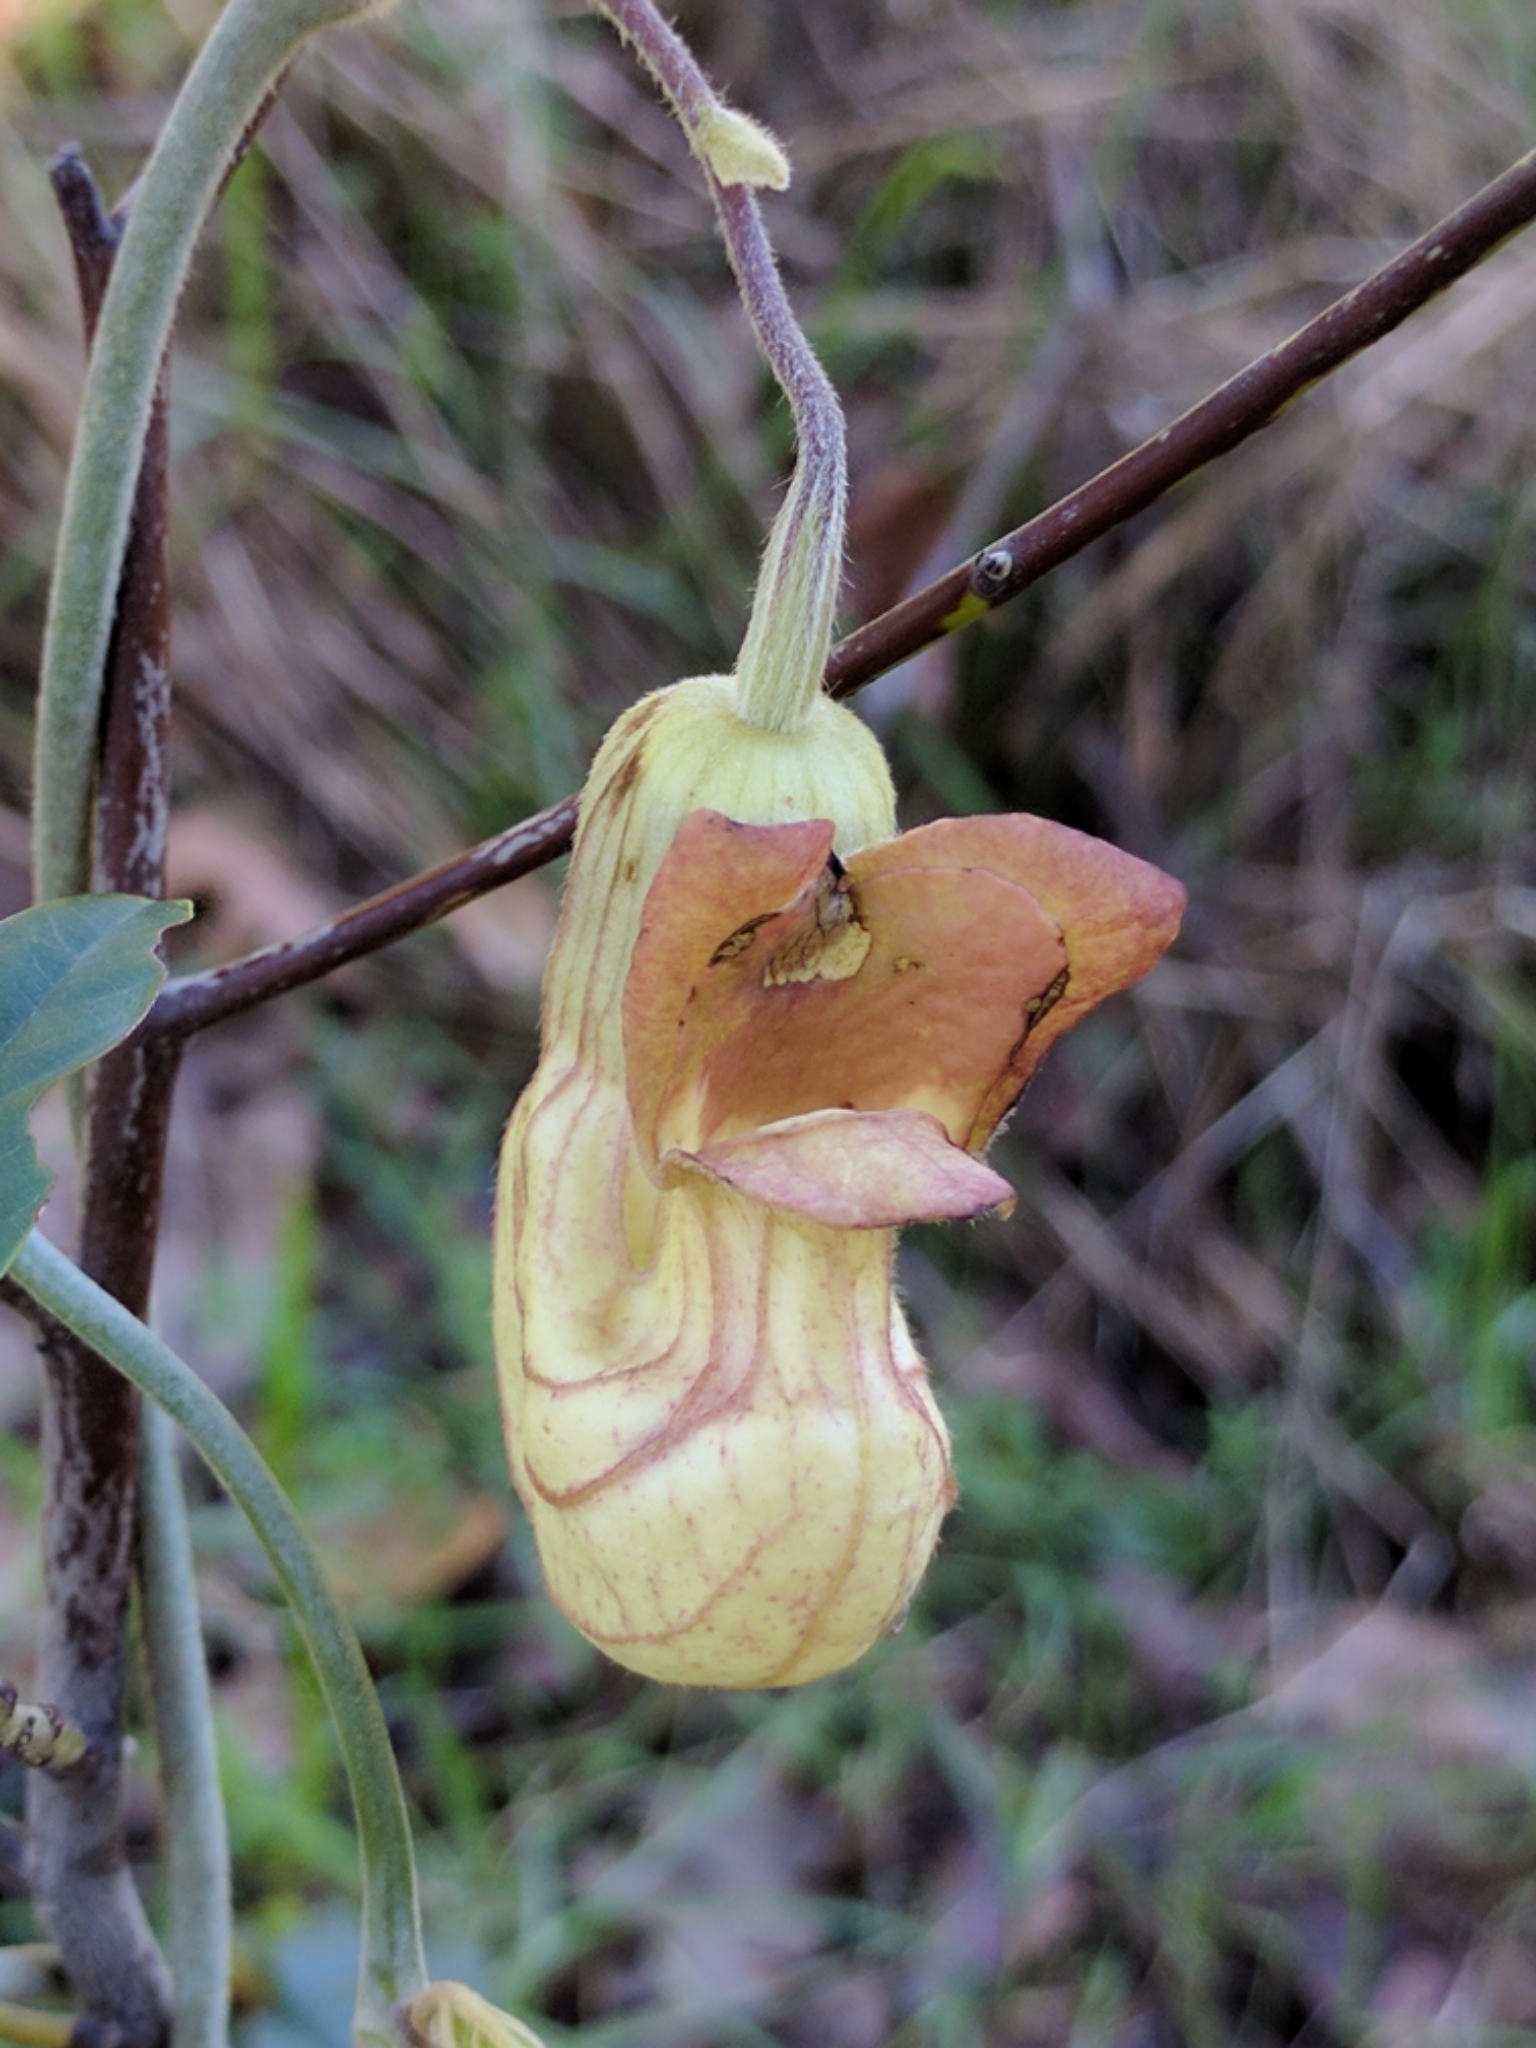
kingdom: Plantae
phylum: Tracheophyta
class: Magnoliopsida
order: Piperales
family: Aristolochiaceae
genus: Isotrema
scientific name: Isotrema californicum
